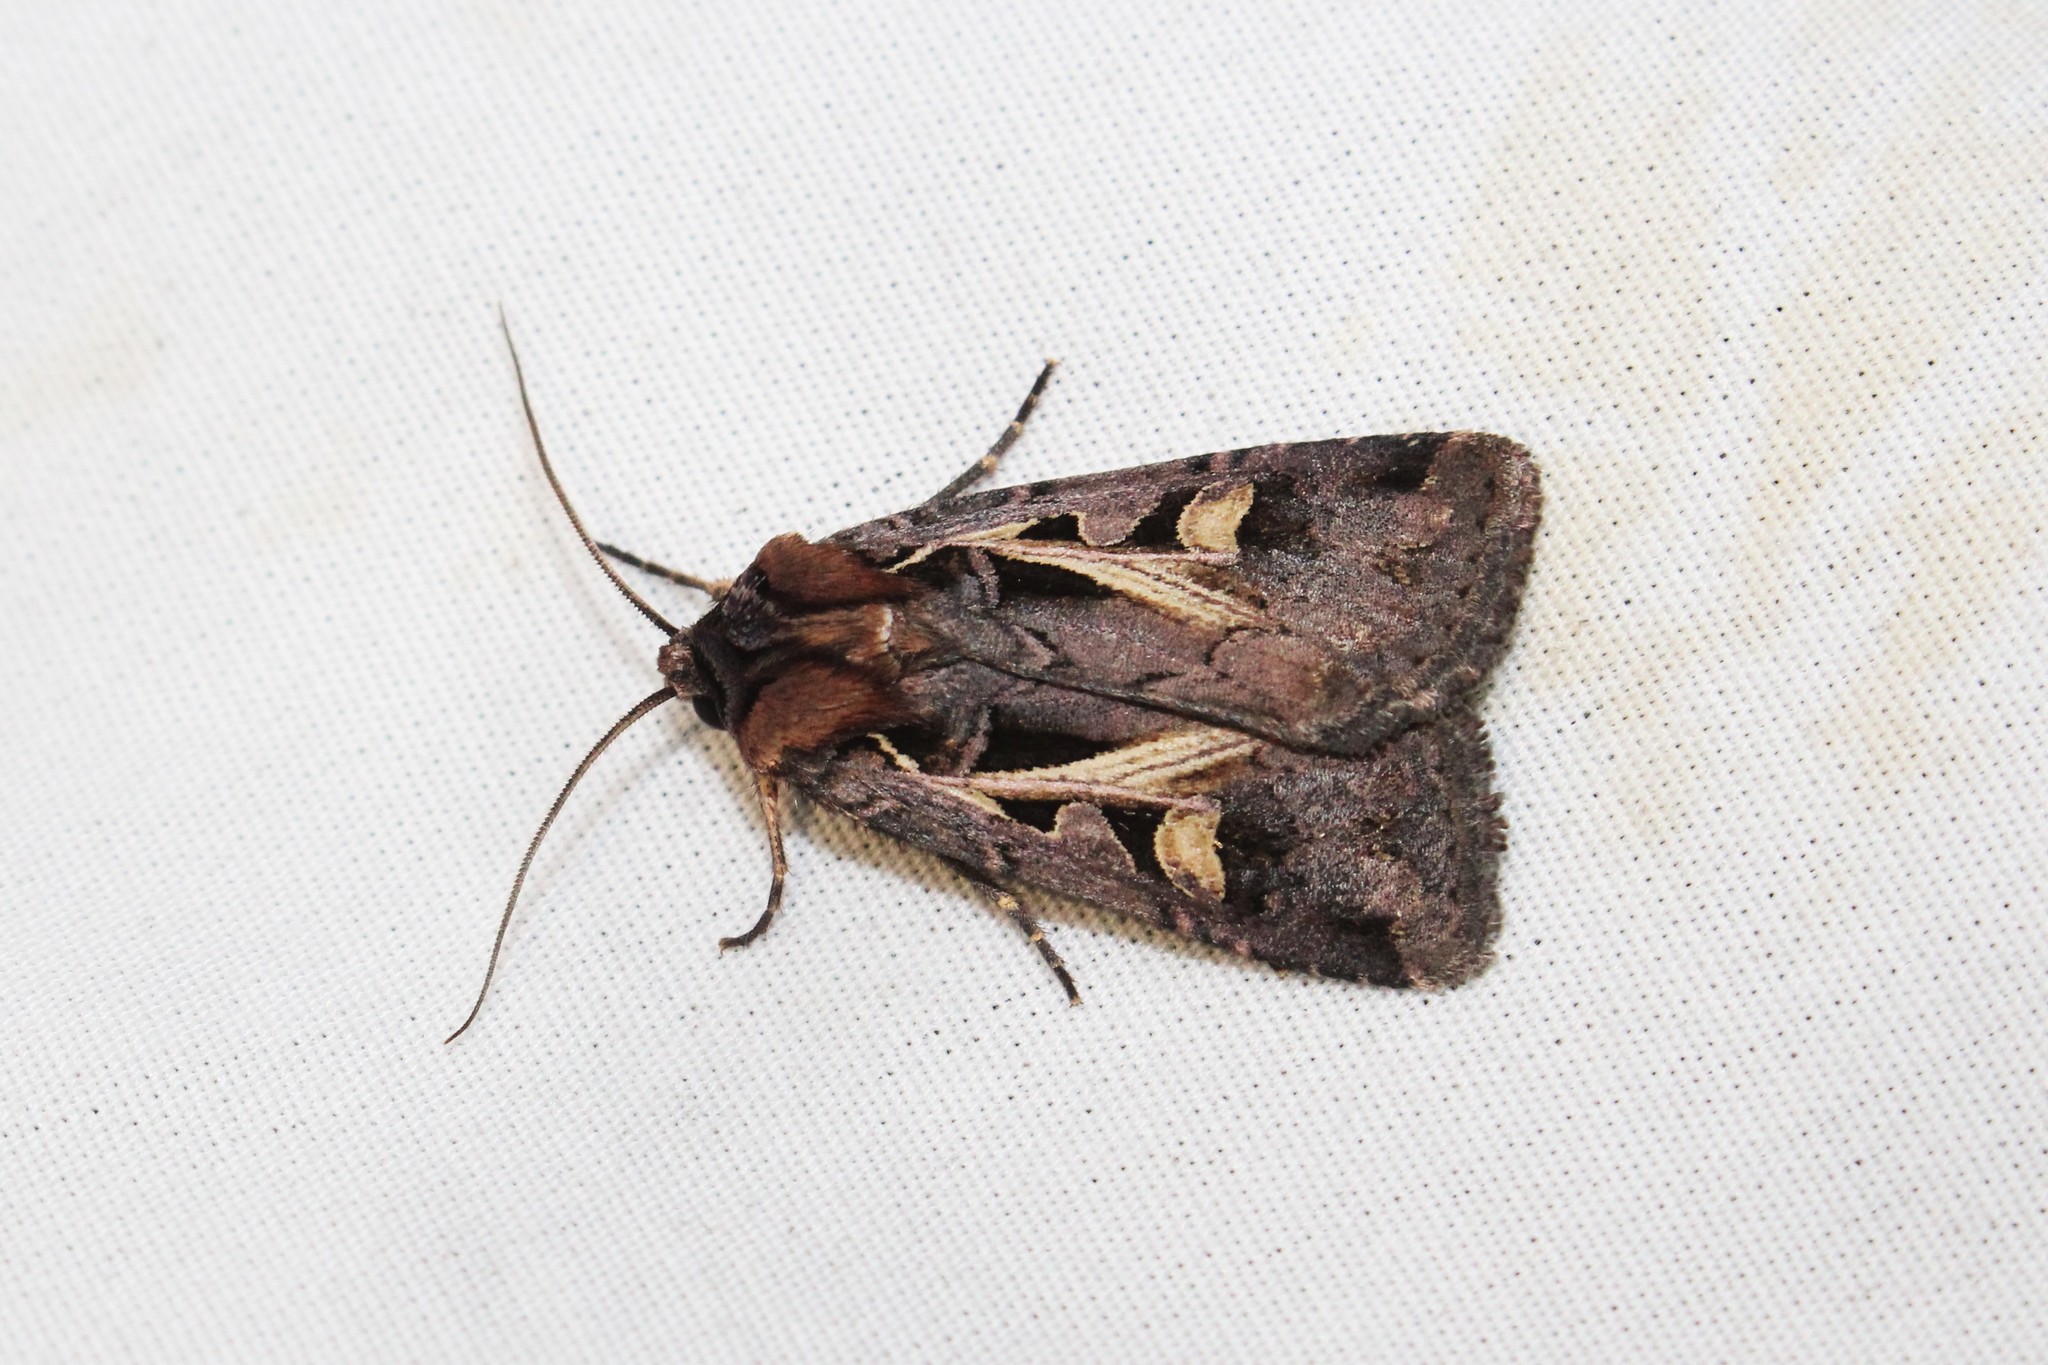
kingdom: Animalia
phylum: Arthropoda
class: Insecta
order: Lepidoptera
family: Noctuidae
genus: Feltia
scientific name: Feltia herilis
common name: Master's dart
